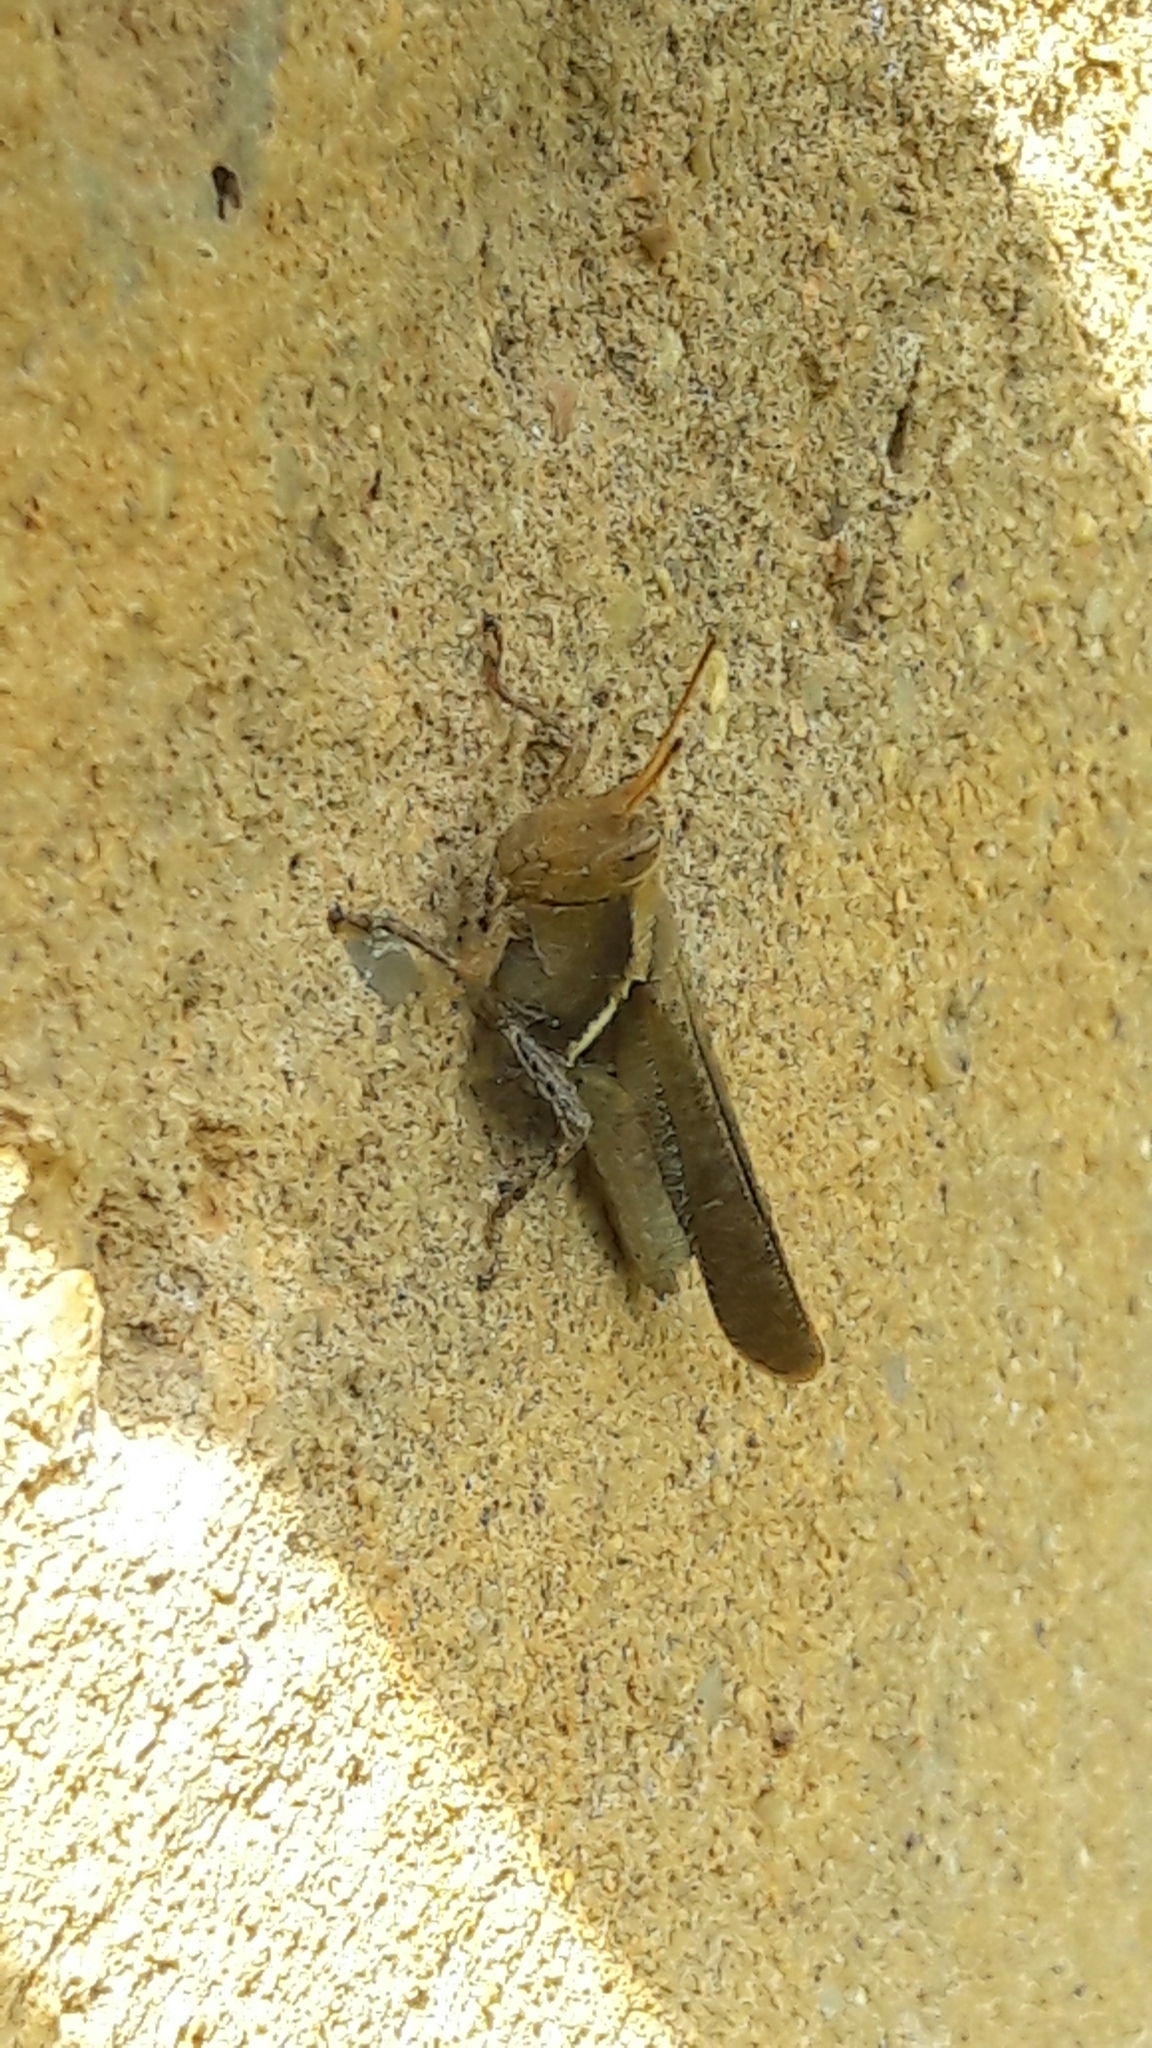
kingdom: Animalia
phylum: Arthropoda
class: Insecta
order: Orthoptera
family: Acrididae
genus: Abracris
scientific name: Abracris flavolineata
